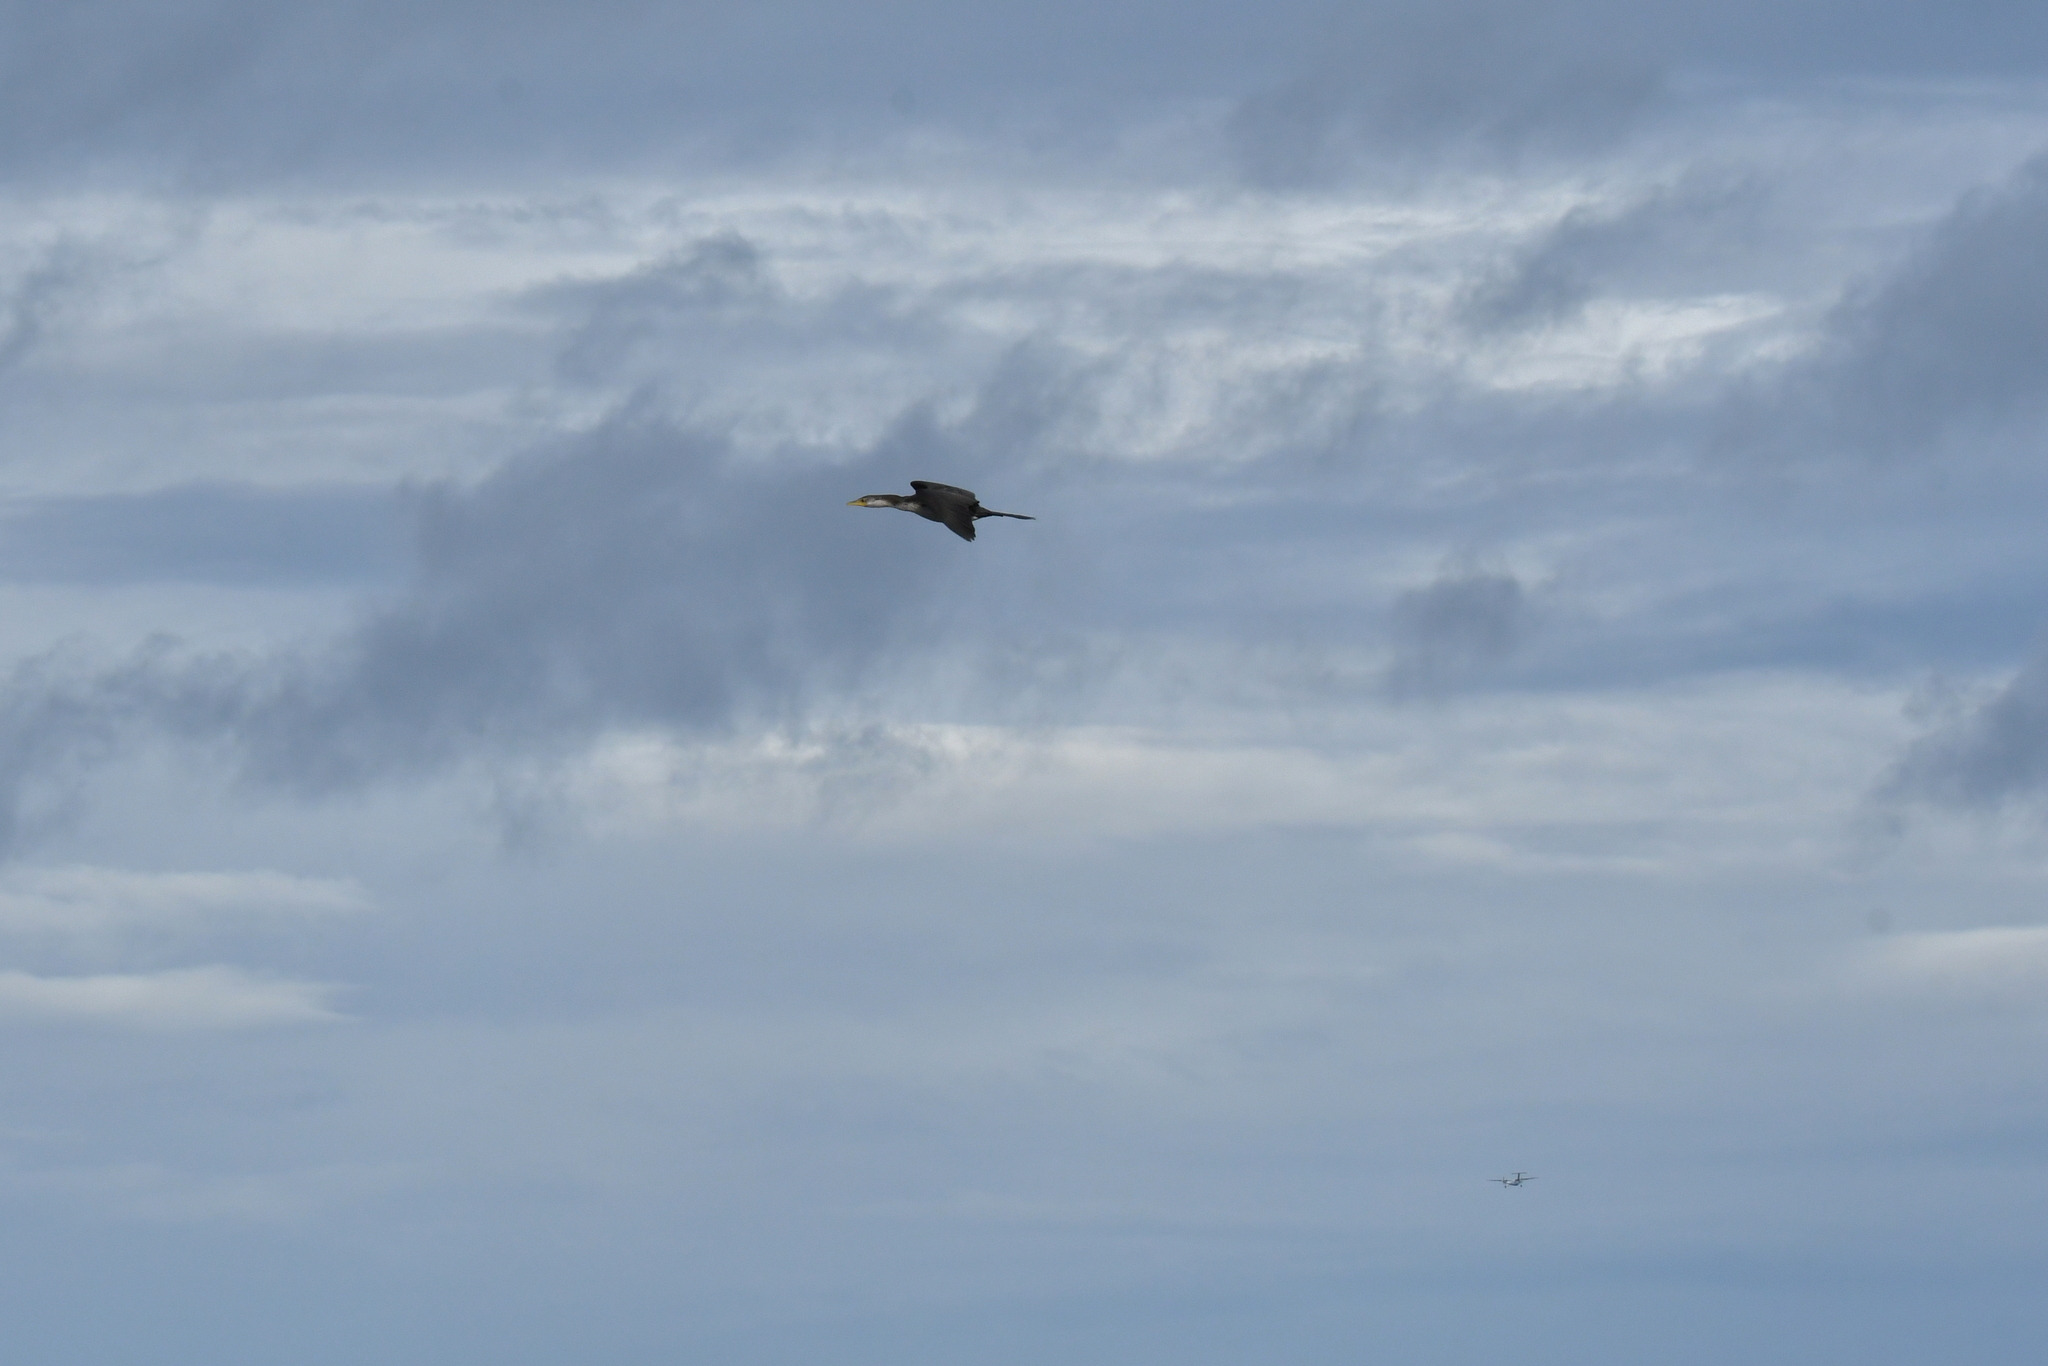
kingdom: Animalia
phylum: Chordata
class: Aves
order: Suliformes
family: Phalacrocoracidae
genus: Microcarbo
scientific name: Microcarbo melanoleucos
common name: Little pied cormorant
